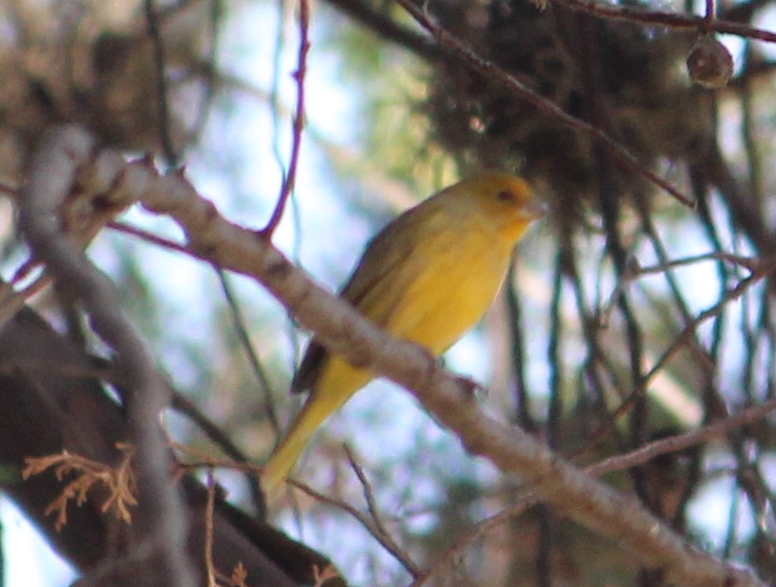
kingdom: Animalia
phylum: Chordata
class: Aves
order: Passeriformes
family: Thraupidae
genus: Sicalis
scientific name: Sicalis flaveola
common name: Saffron finch
